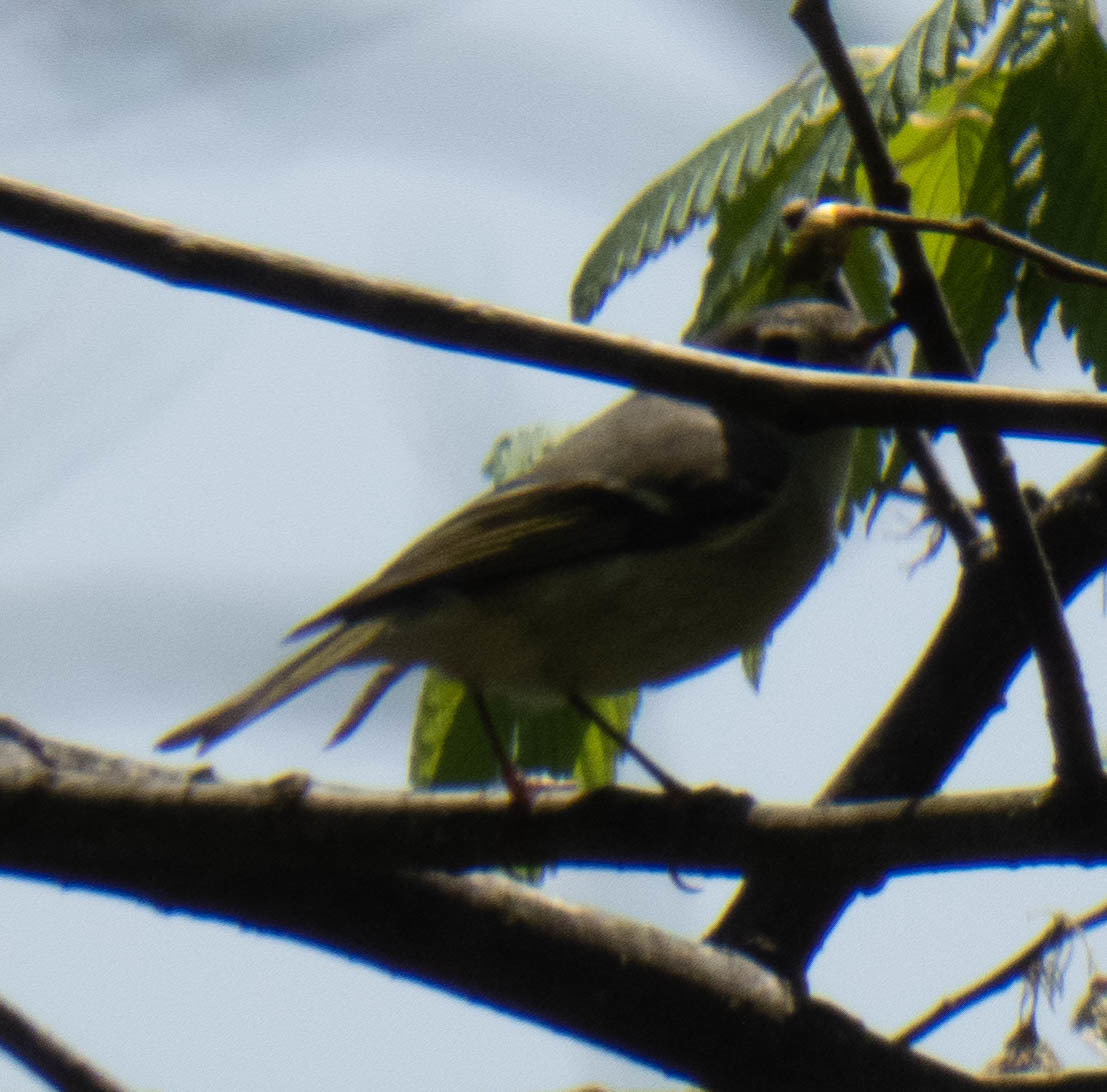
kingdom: Animalia
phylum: Chordata
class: Aves
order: Passeriformes
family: Regulidae
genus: Regulus
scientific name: Regulus calendula
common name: Ruby-crowned kinglet
